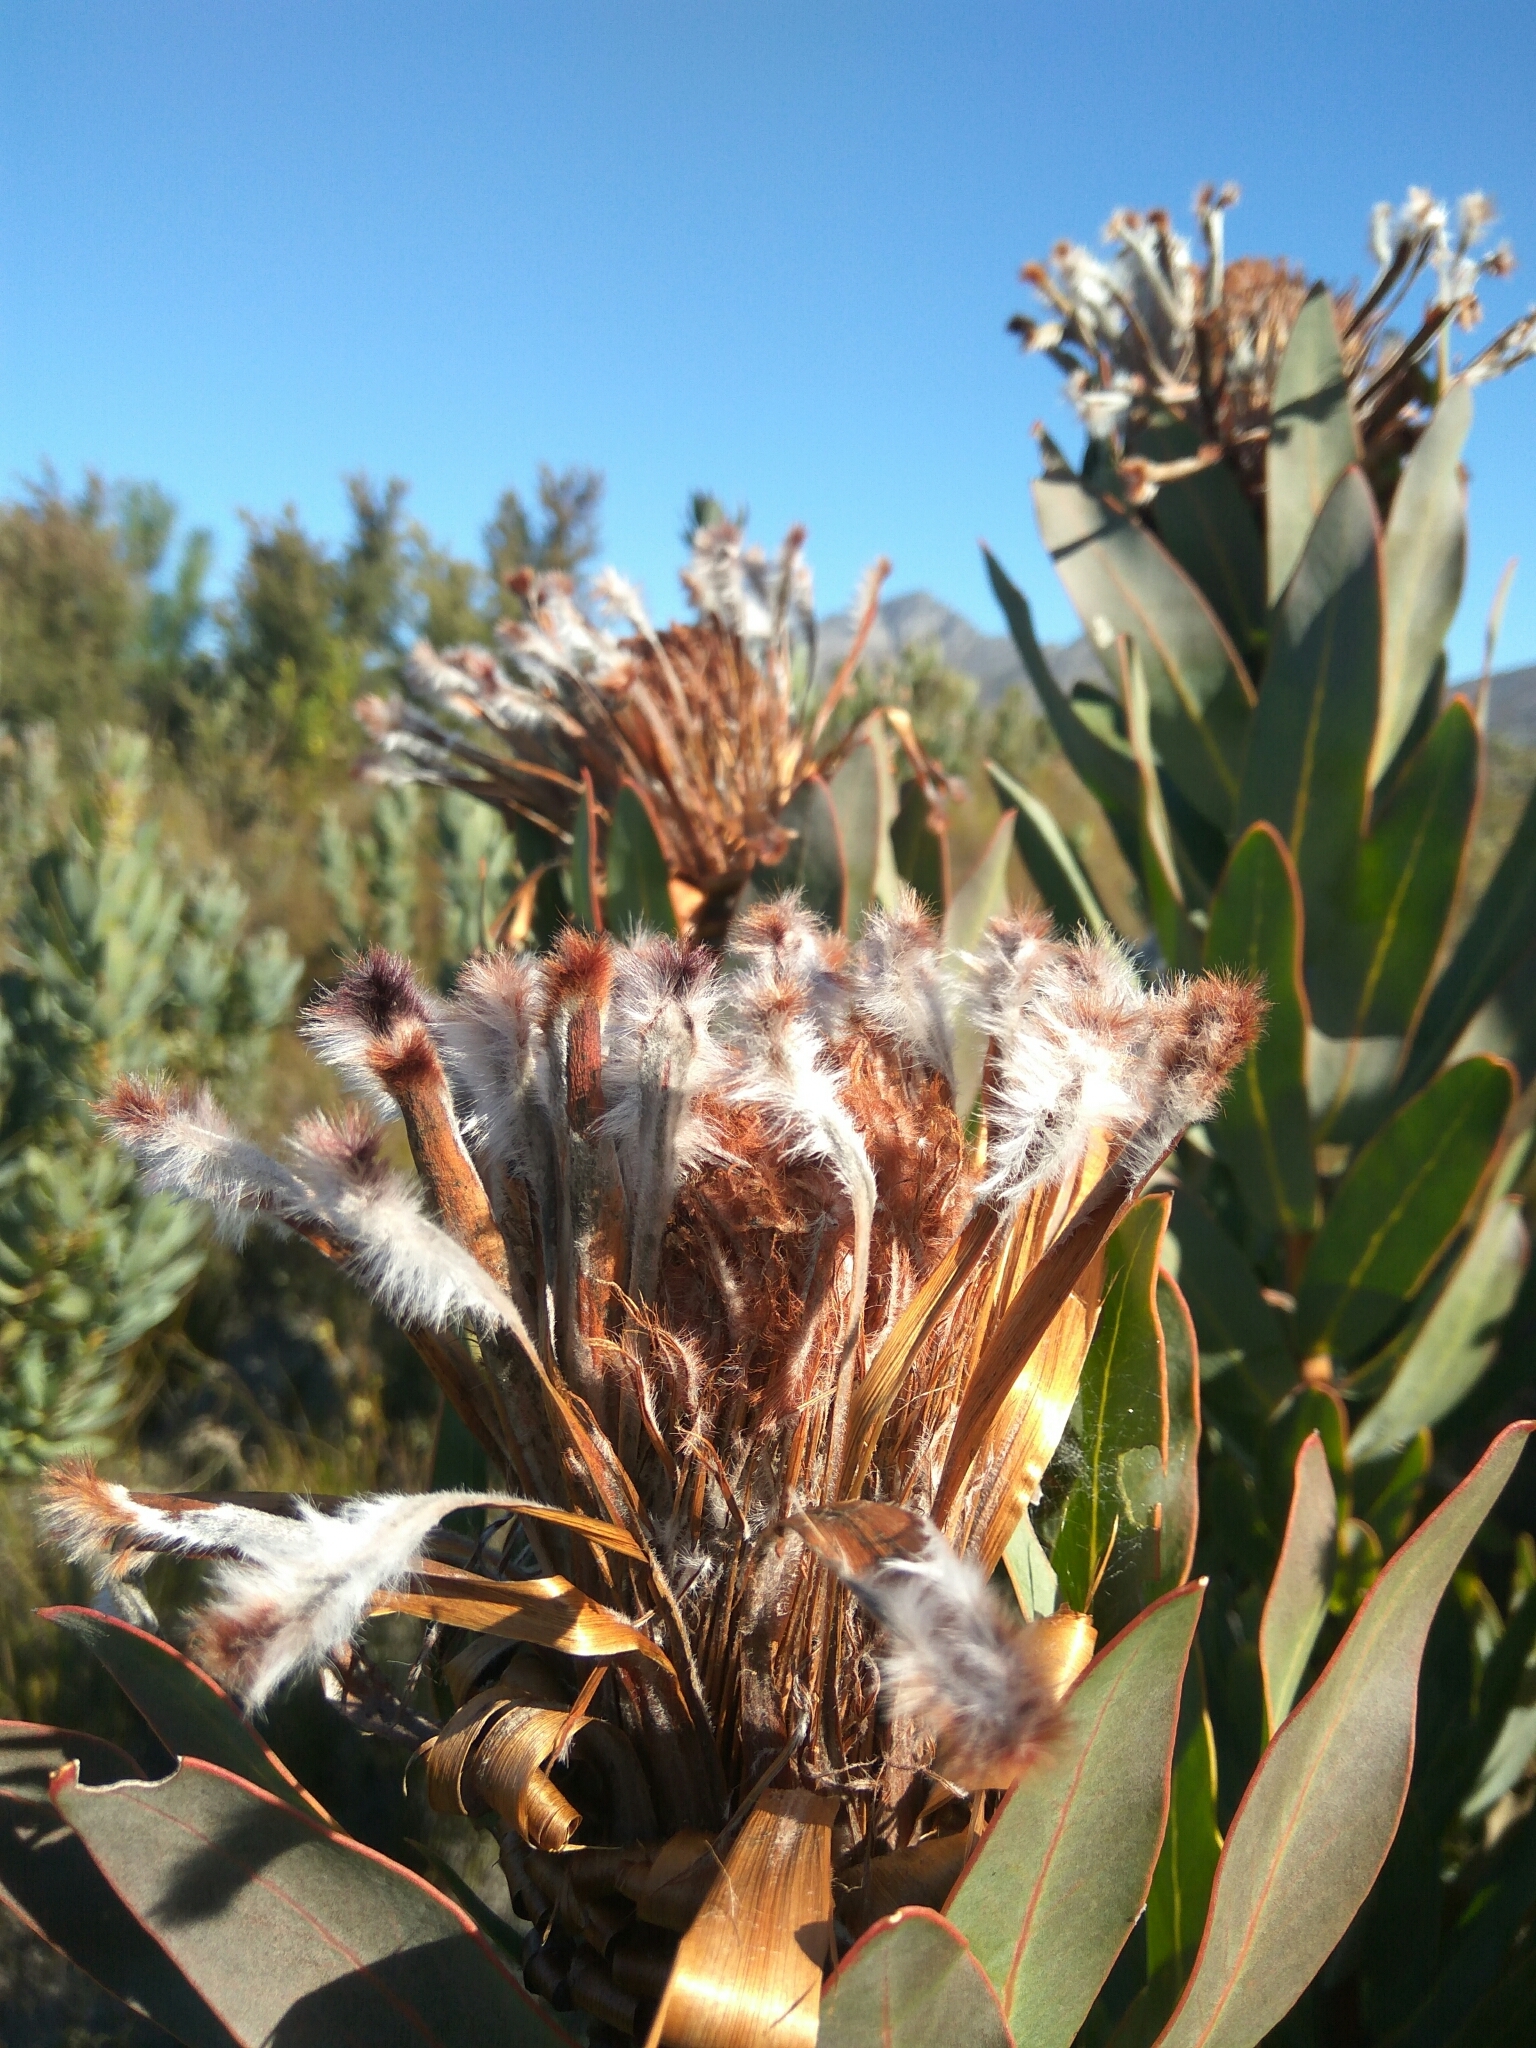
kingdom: Plantae
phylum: Tracheophyta
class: Magnoliopsida
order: Proteales
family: Proteaceae
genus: Protea
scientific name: Protea laurifolia
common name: Grey-leaf sugarbsh
